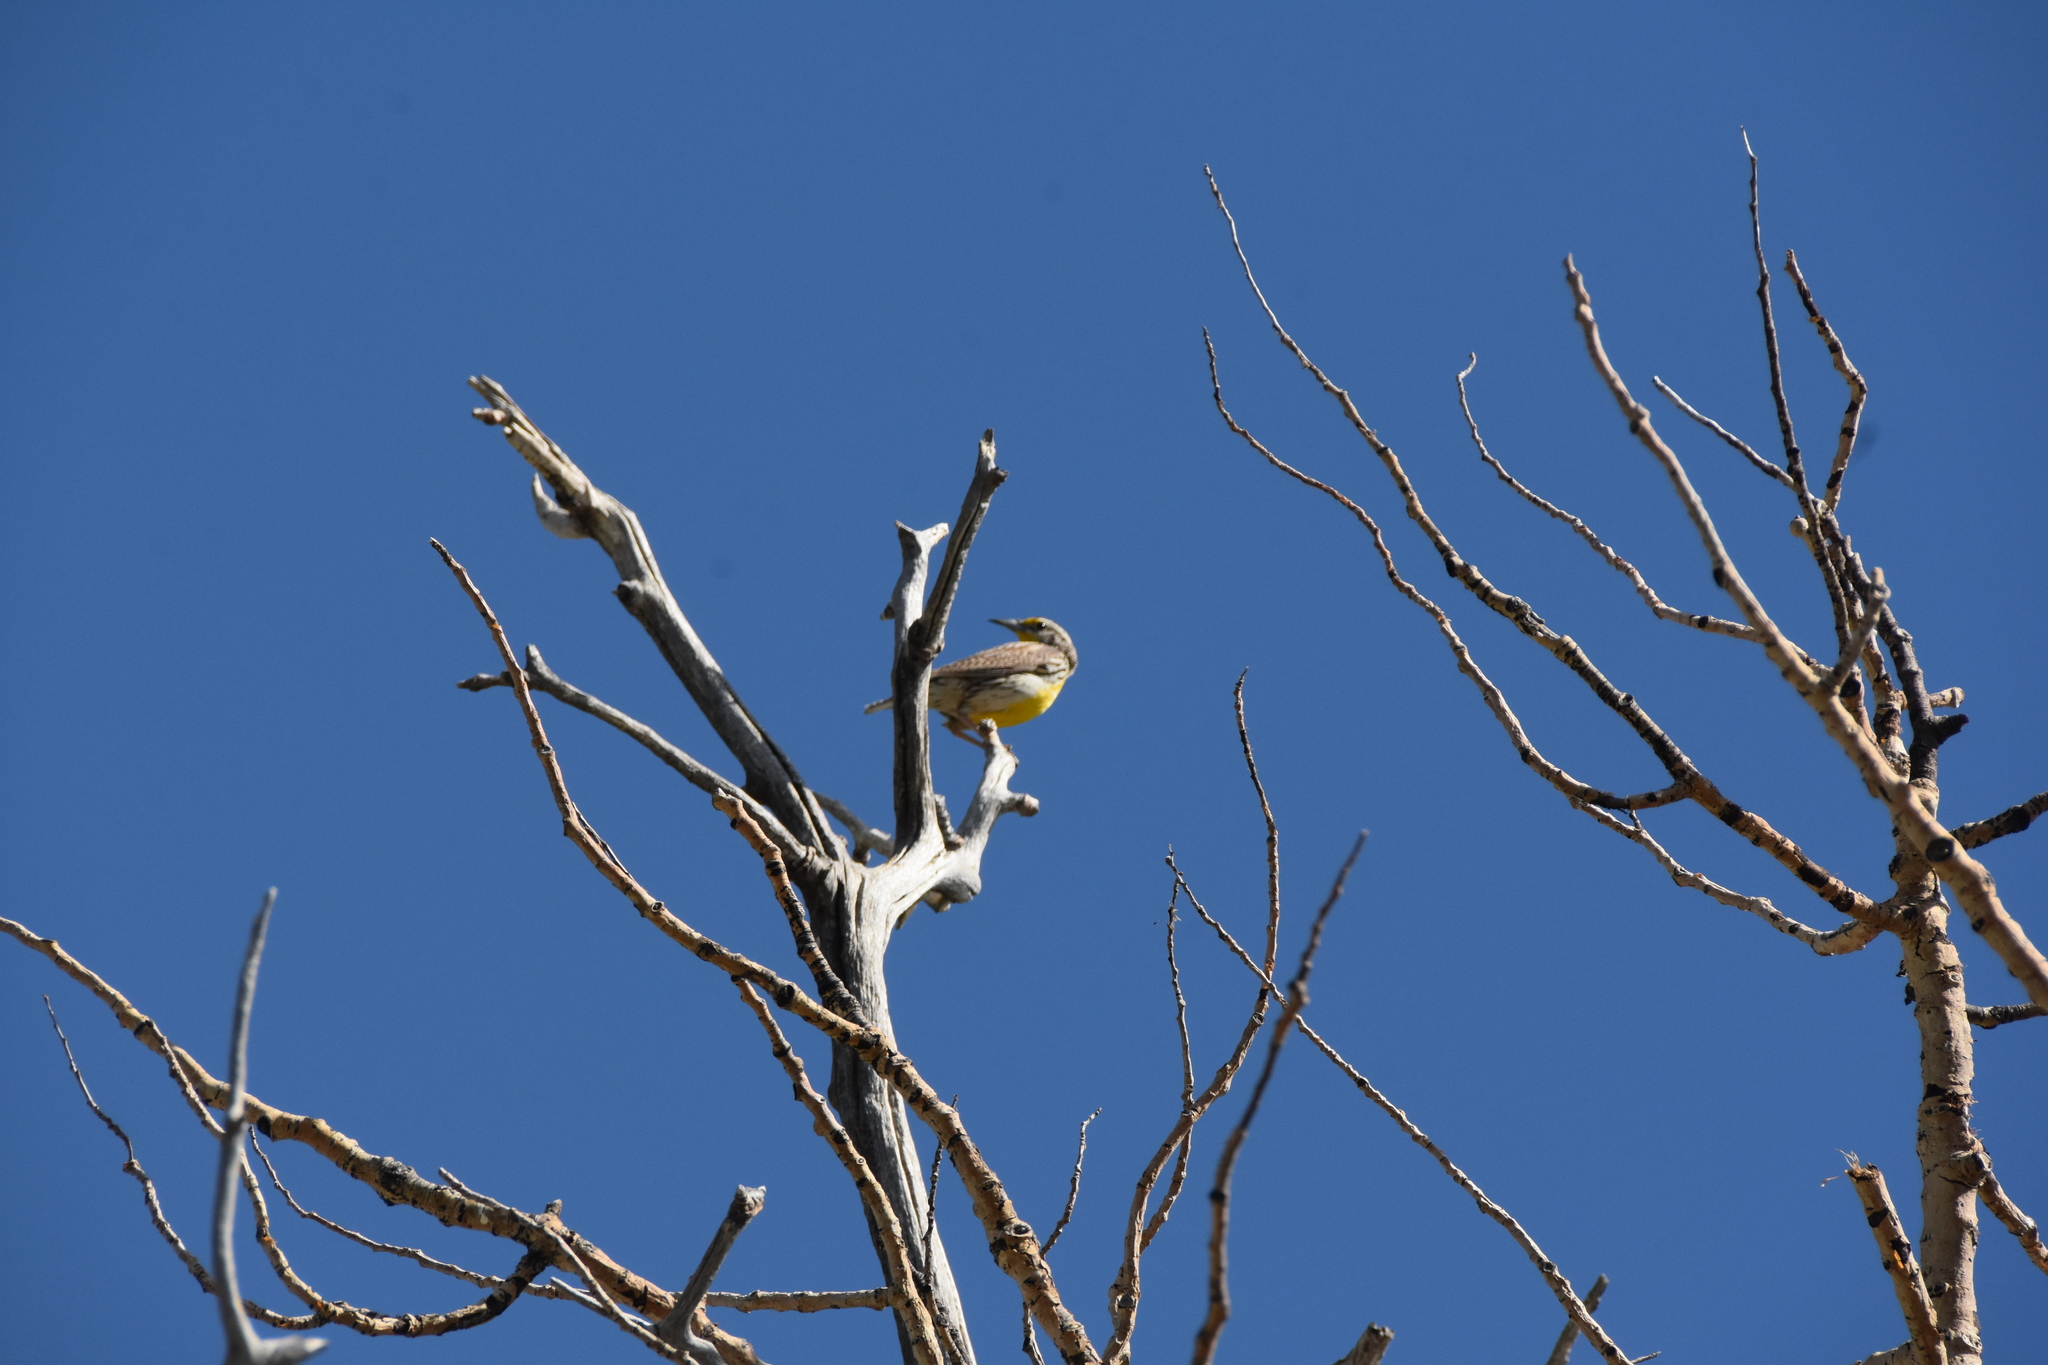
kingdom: Animalia
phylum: Chordata
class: Aves
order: Passeriformes
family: Icteridae
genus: Sturnella
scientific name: Sturnella neglecta
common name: Western meadowlark
